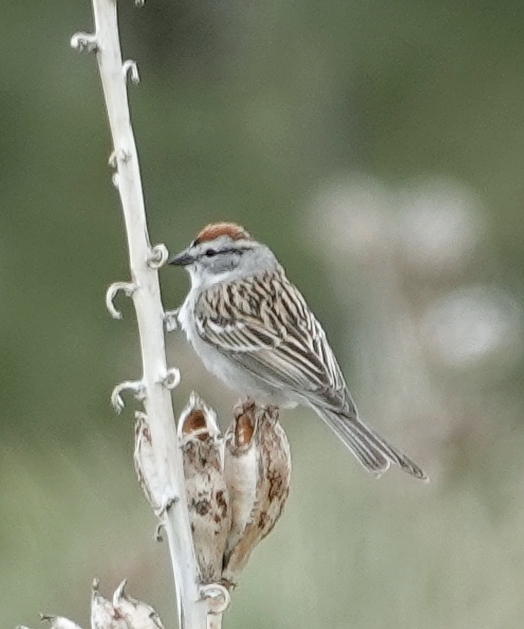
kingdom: Animalia
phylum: Chordata
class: Aves
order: Passeriformes
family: Passerellidae
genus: Spizella
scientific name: Spizella passerina
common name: Chipping sparrow
